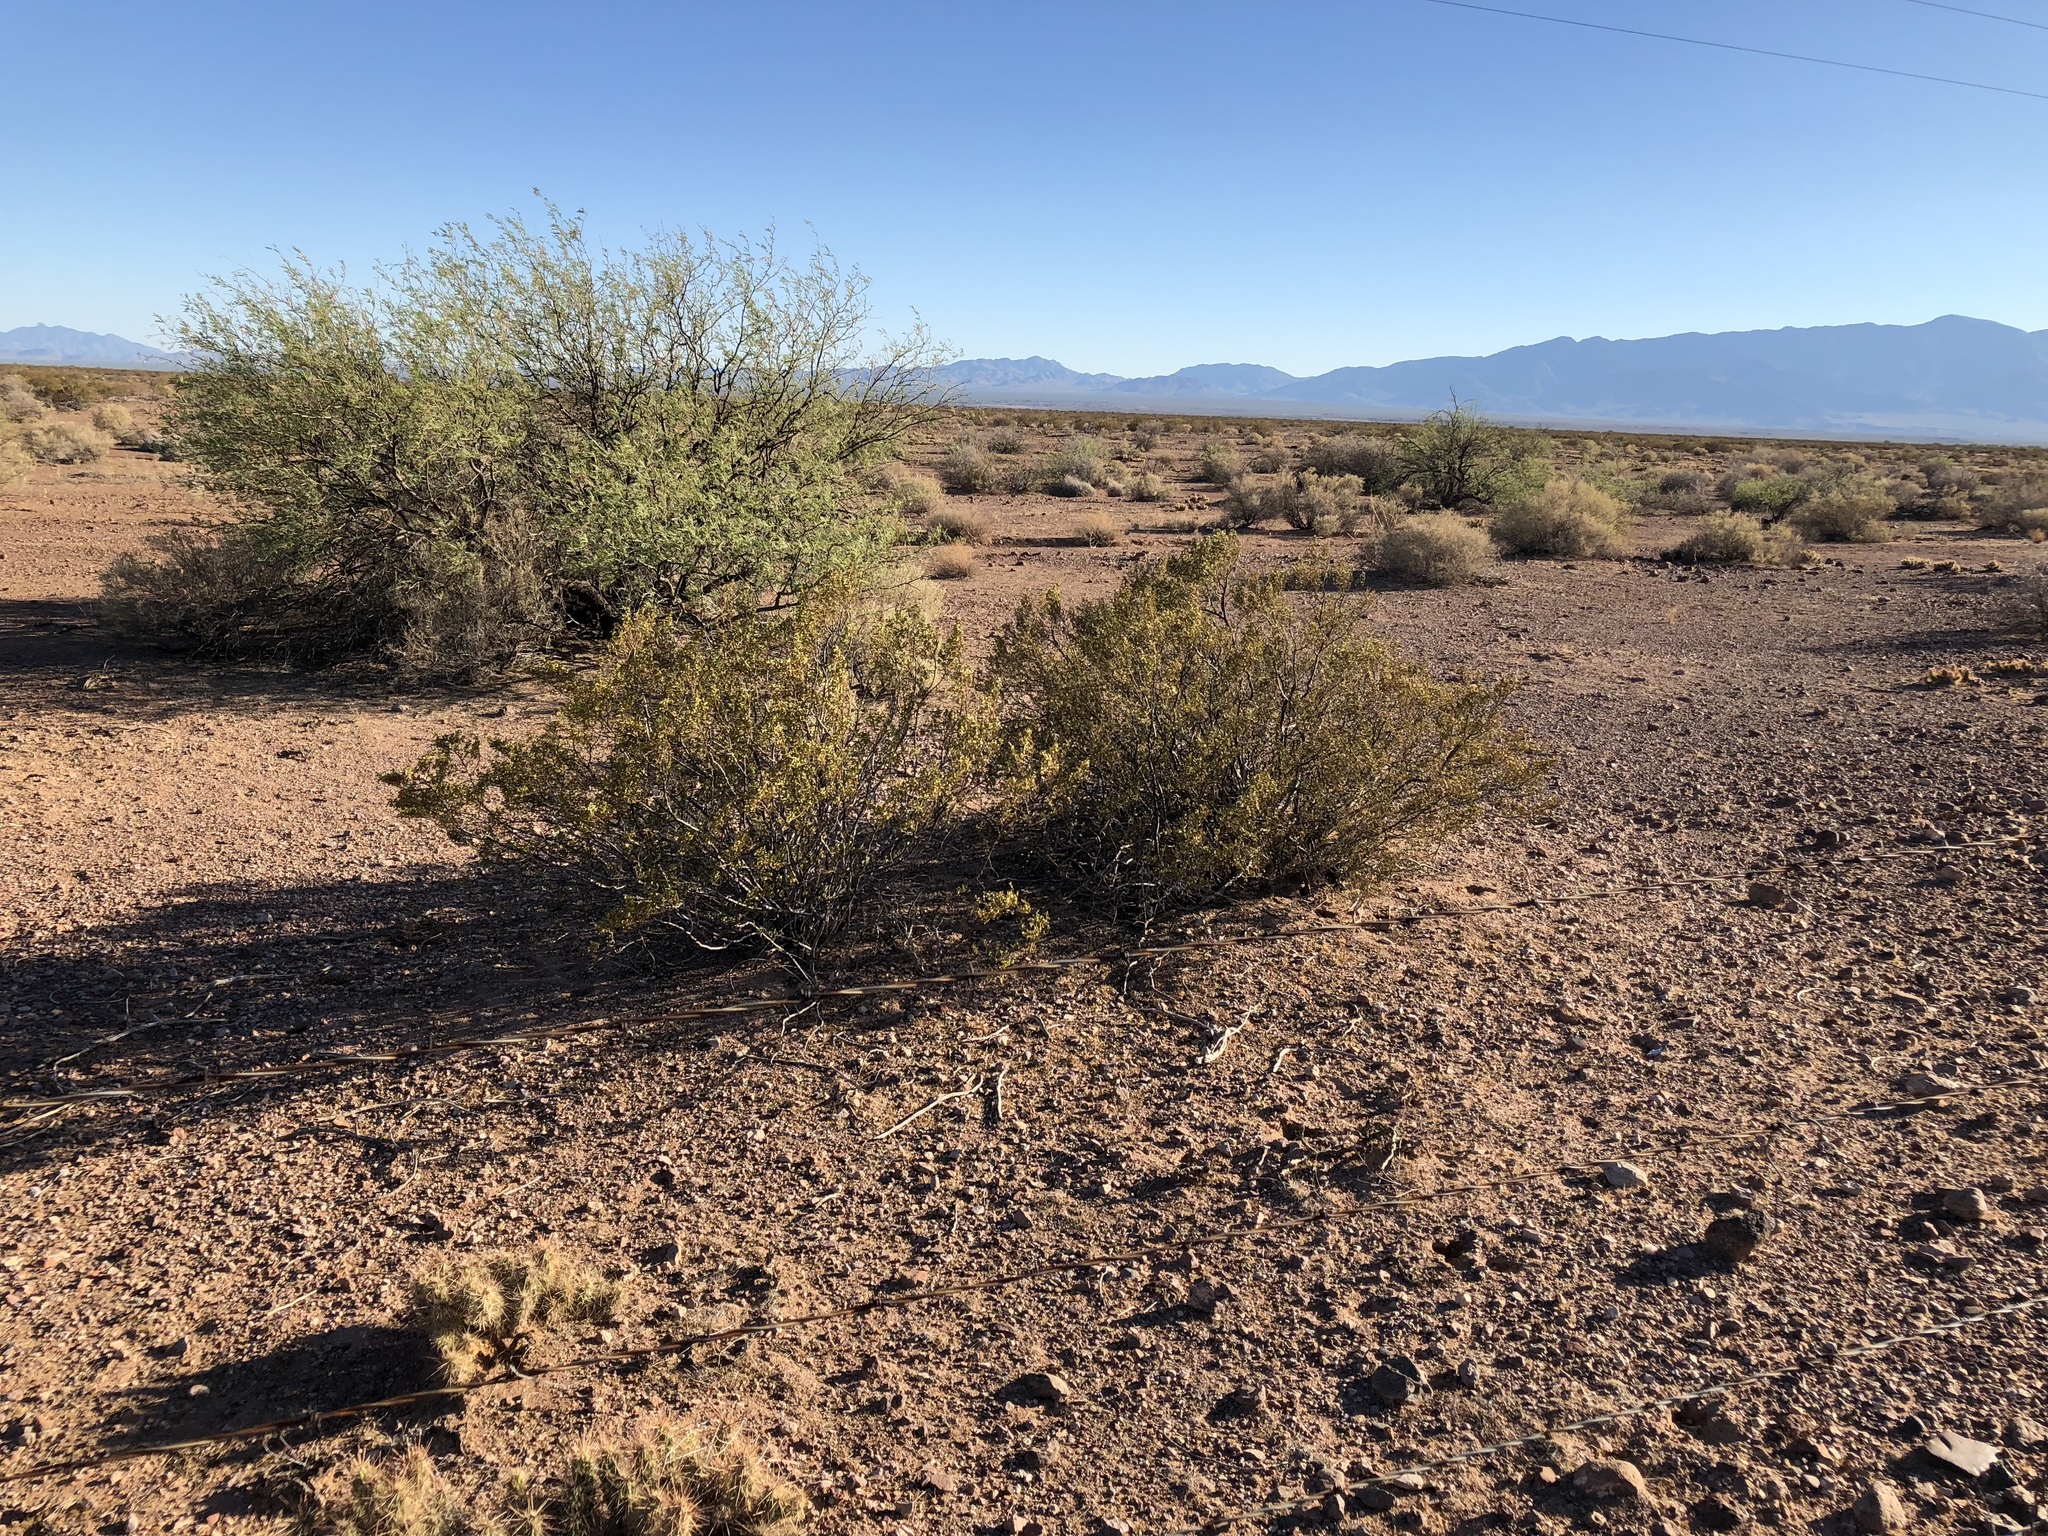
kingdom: Plantae
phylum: Tracheophyta
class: Magnoliopsida
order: Zygophyllales
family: Zygophyllaceae
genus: Larrea
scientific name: Larrea tridentata
